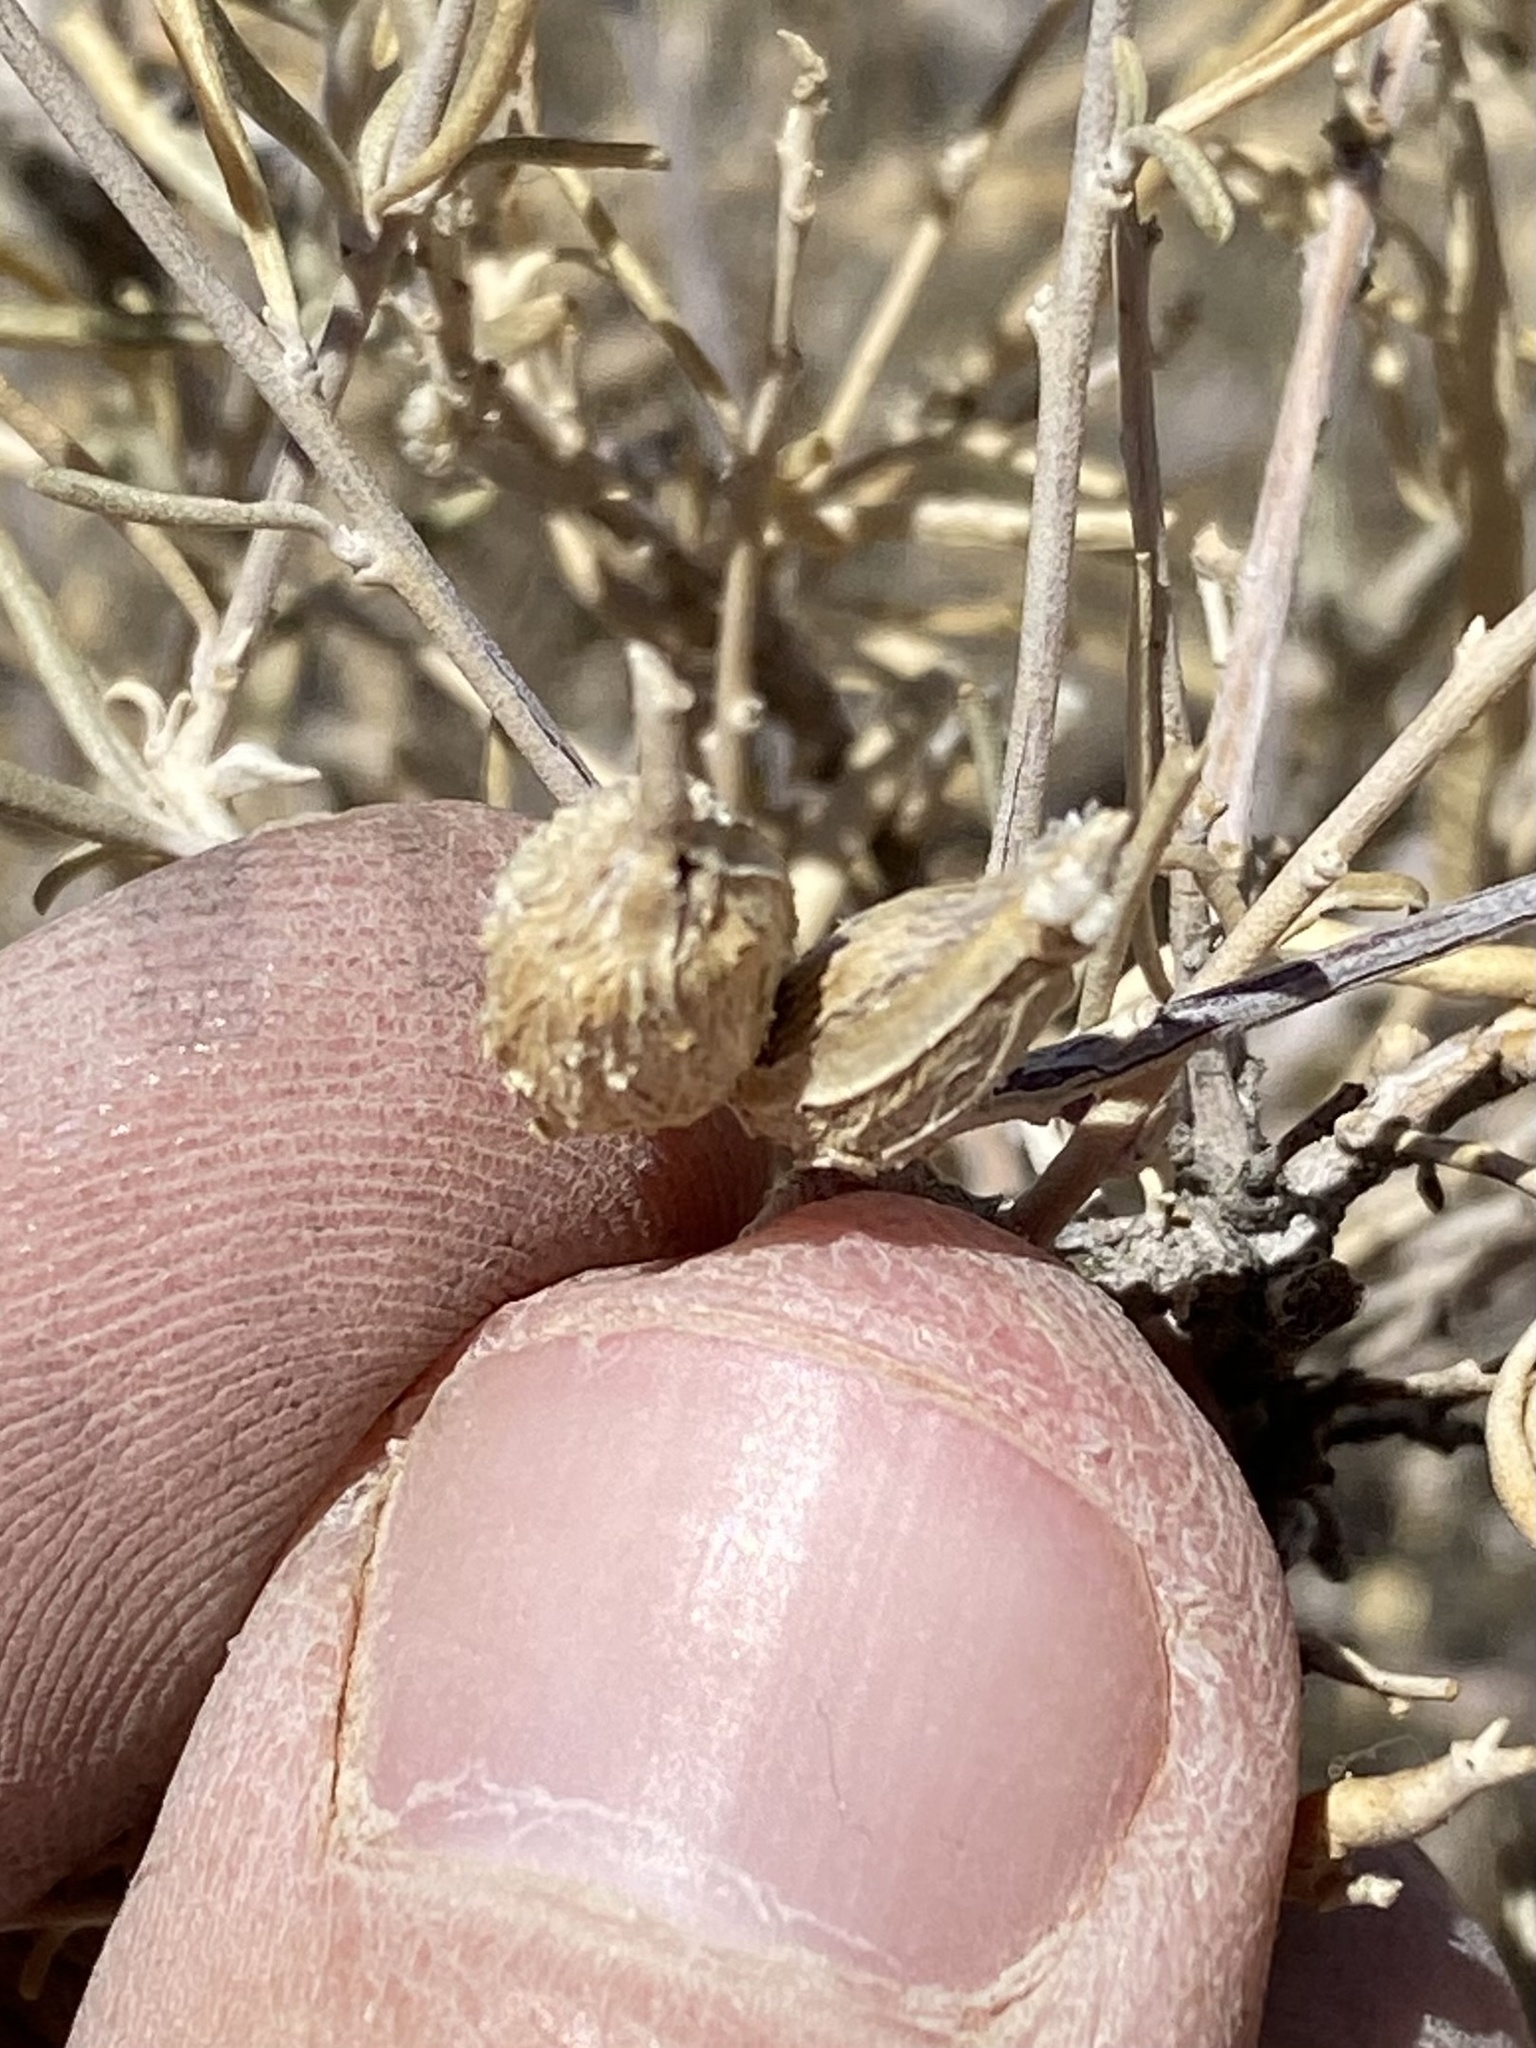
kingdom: Animalia
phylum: Arthropoda
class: Insecta
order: Diptera
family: Cecidomyiidae
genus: Neolasioptera
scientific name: Neolasioptera willistoni
